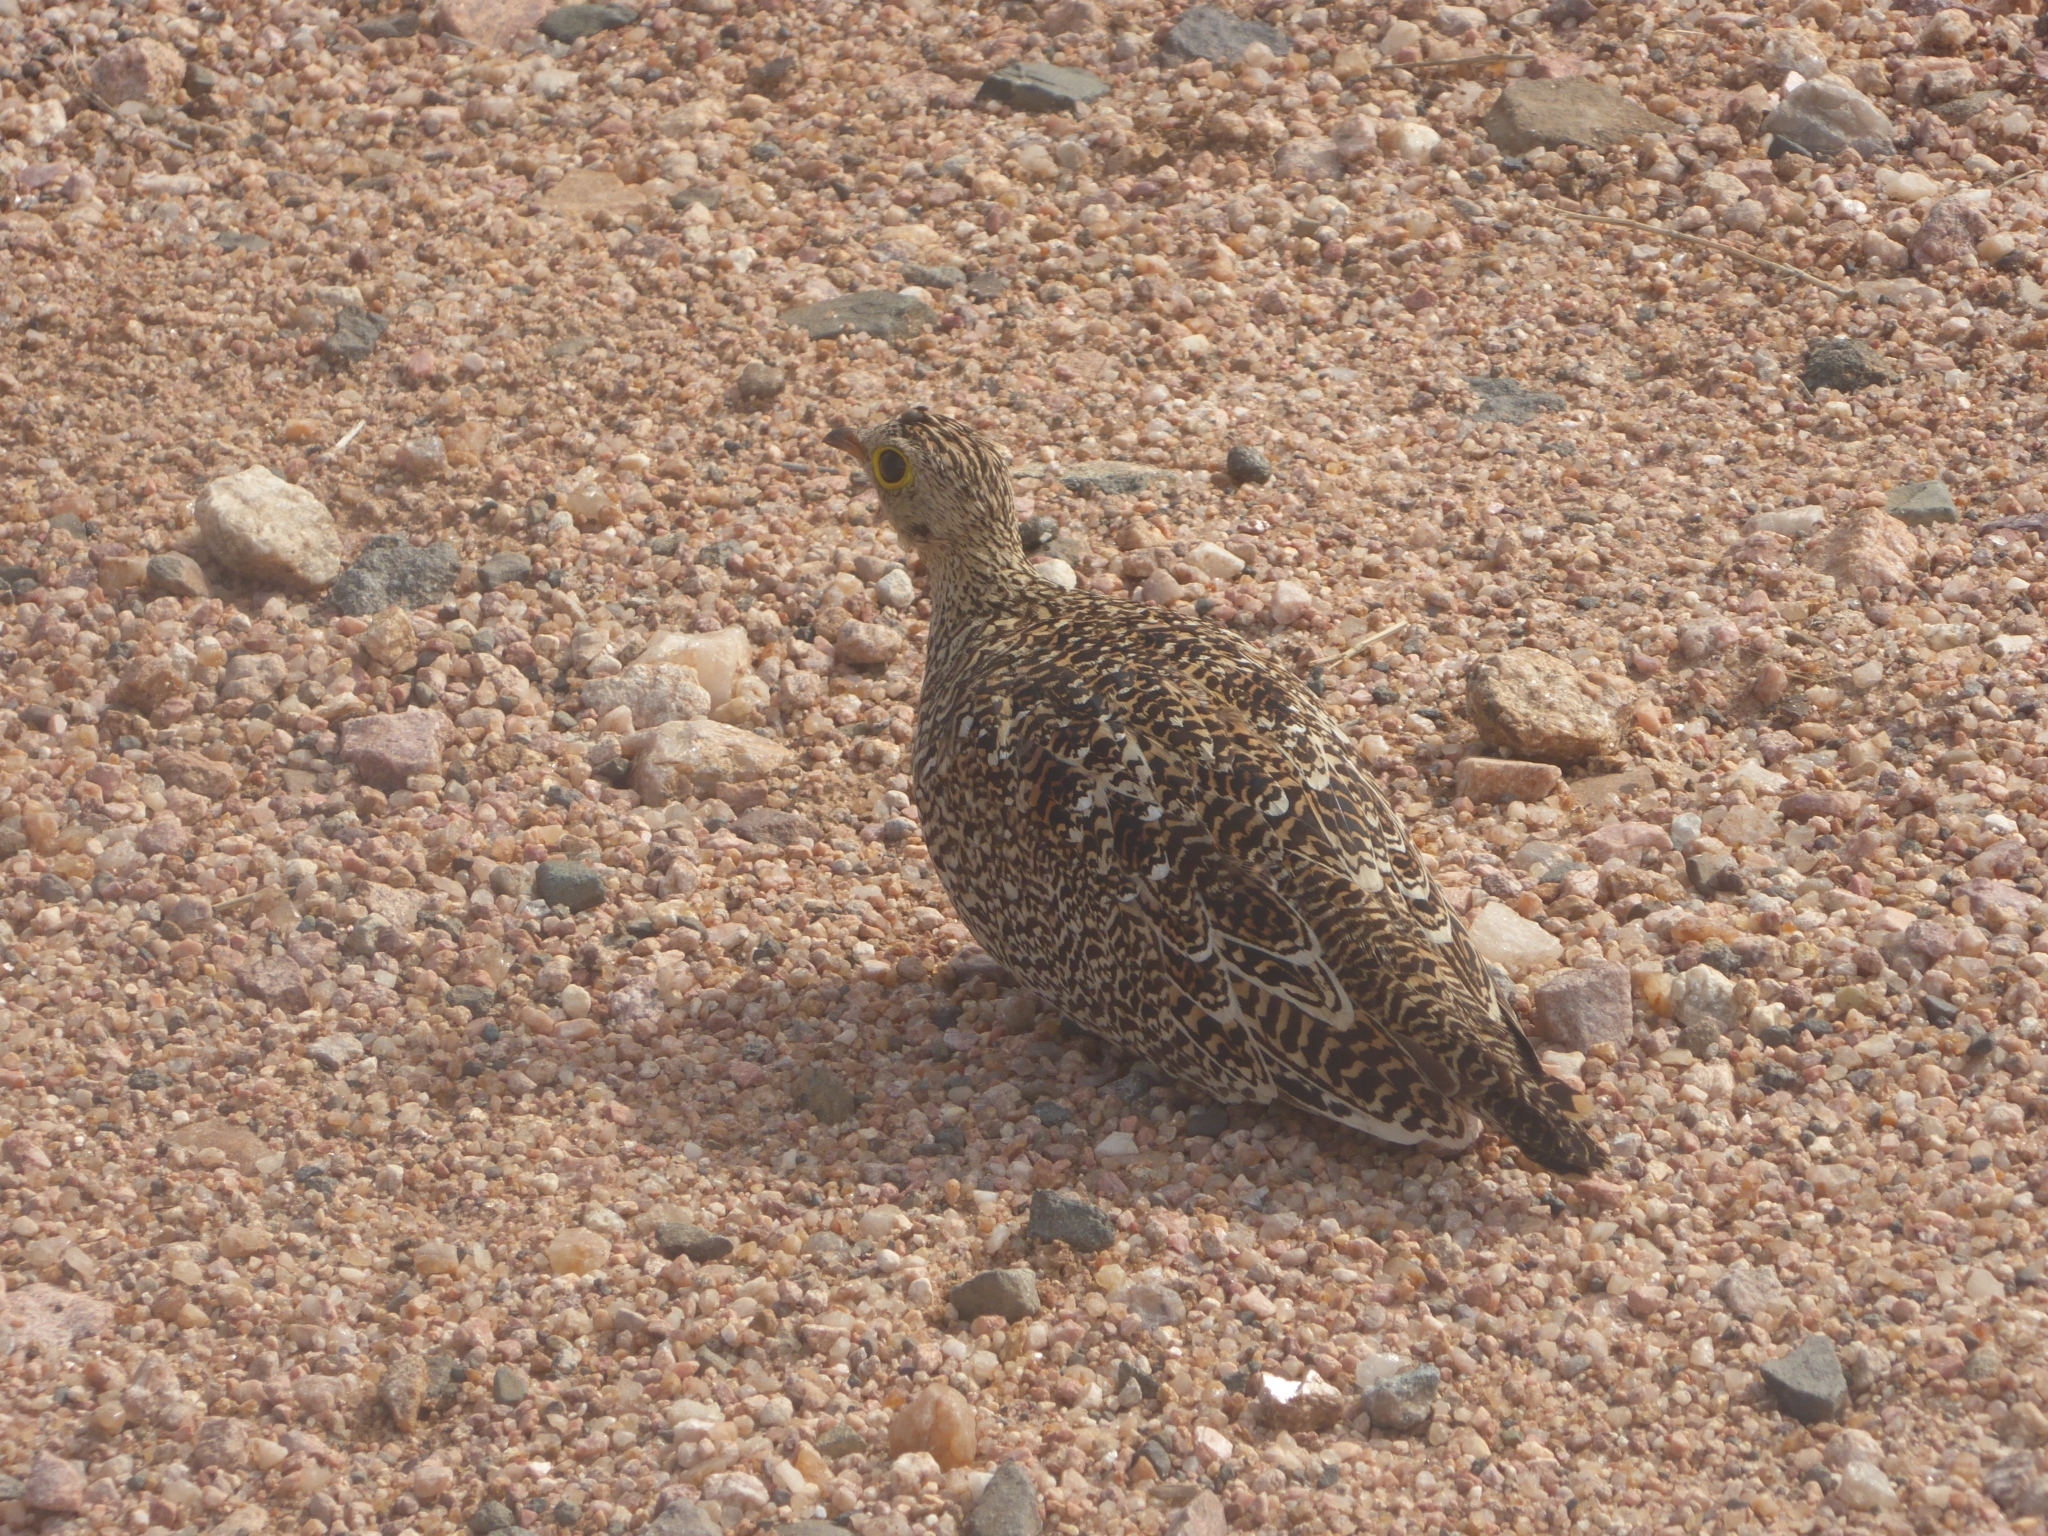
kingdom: Animalia
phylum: Chordata
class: Aves
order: Pteroclidiformes
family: Pteroclididae
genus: Pterocles
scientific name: Pterocles bicinctus
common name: Double-banded sandgrouse
